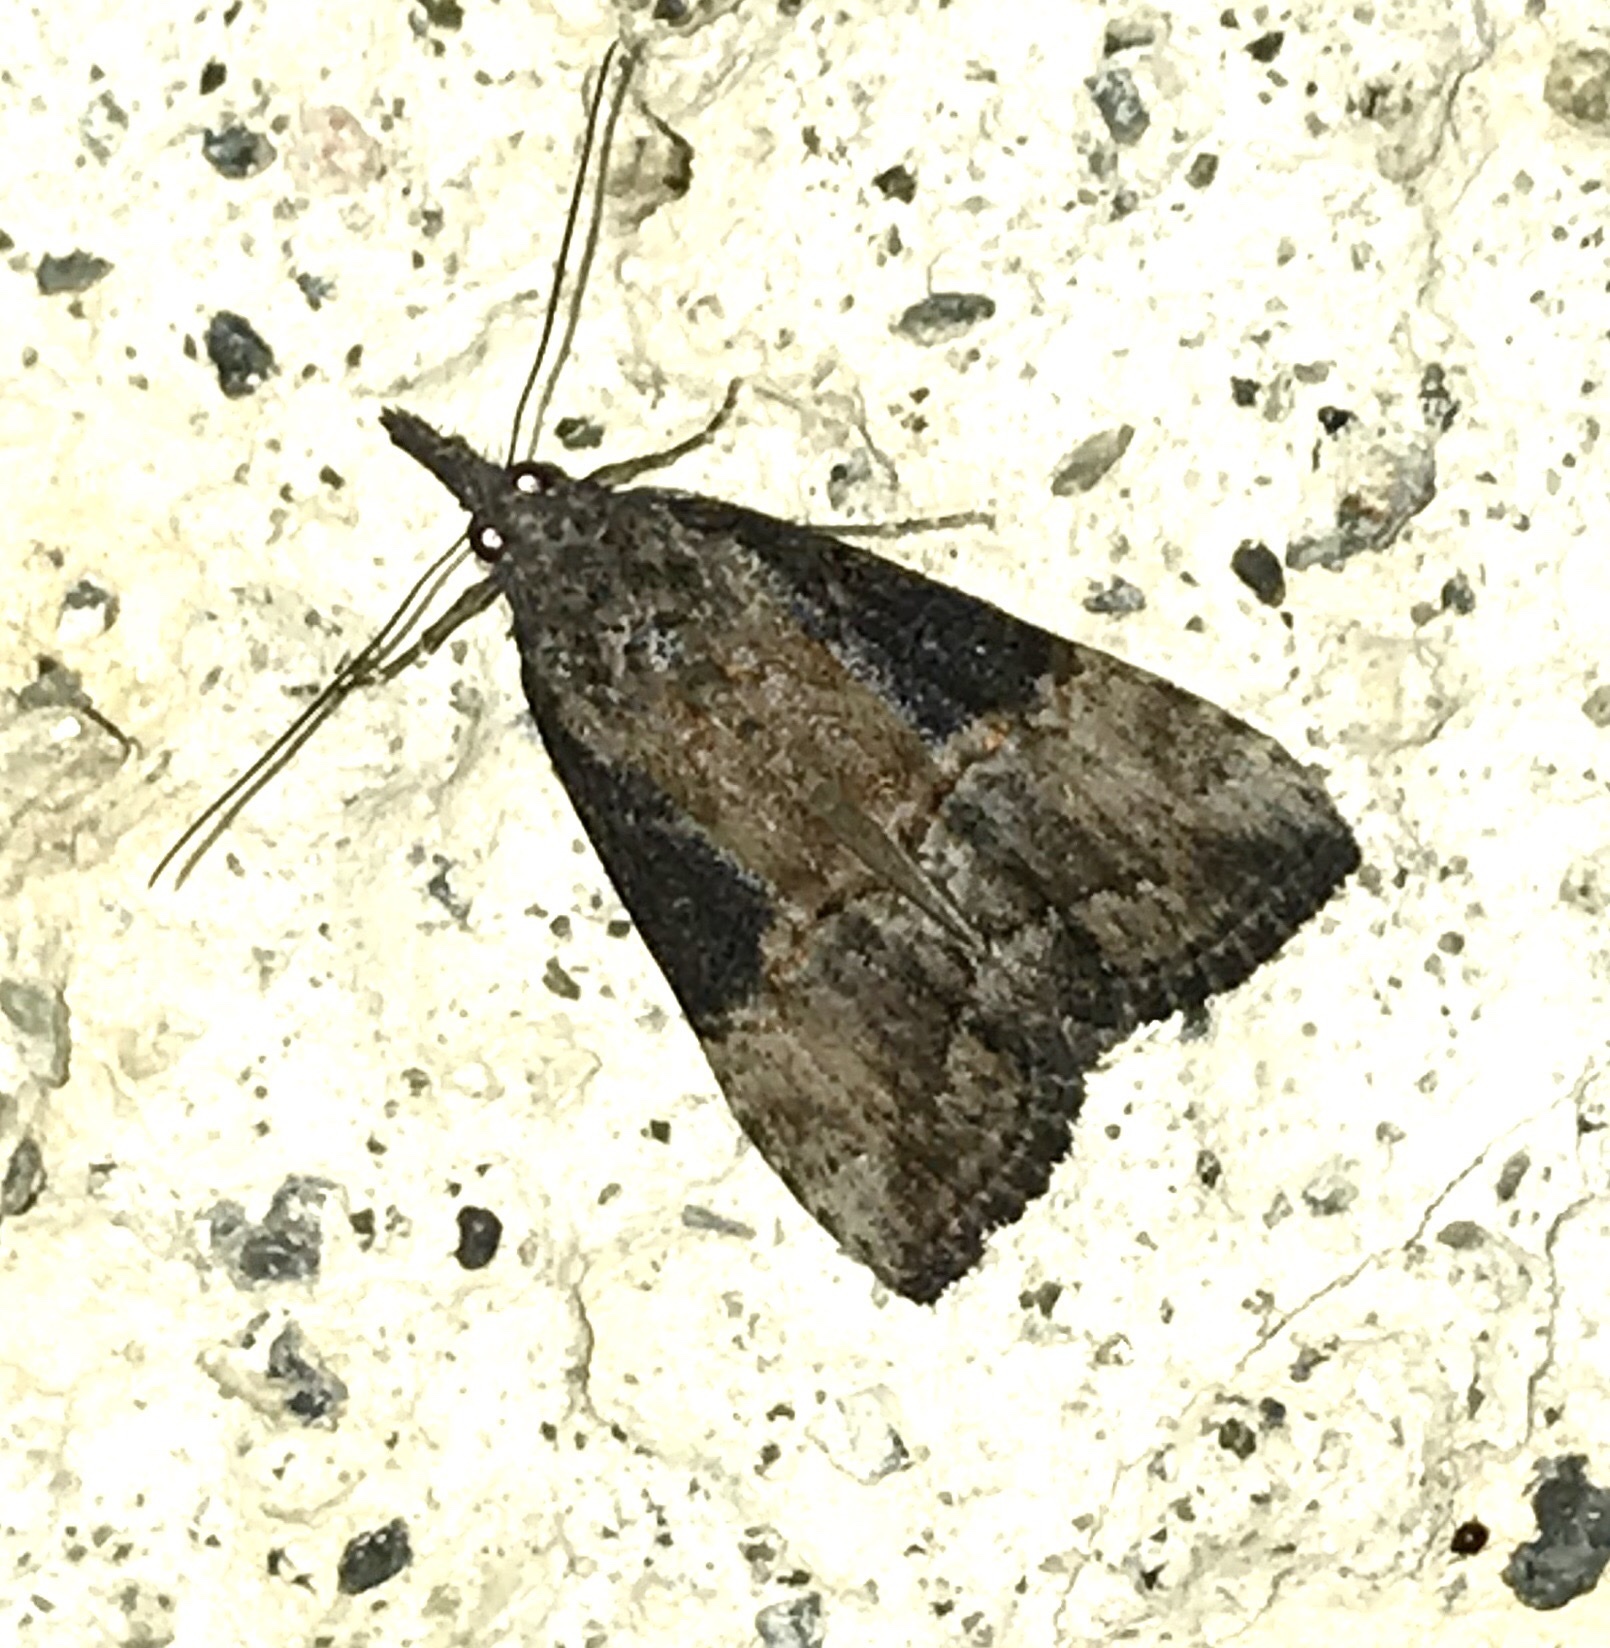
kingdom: Animalia
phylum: Arthropoda
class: Insecta
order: Lepidoptera
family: Erebidae
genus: Hypena
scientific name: Hypena scabra
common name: Green cloverworm
